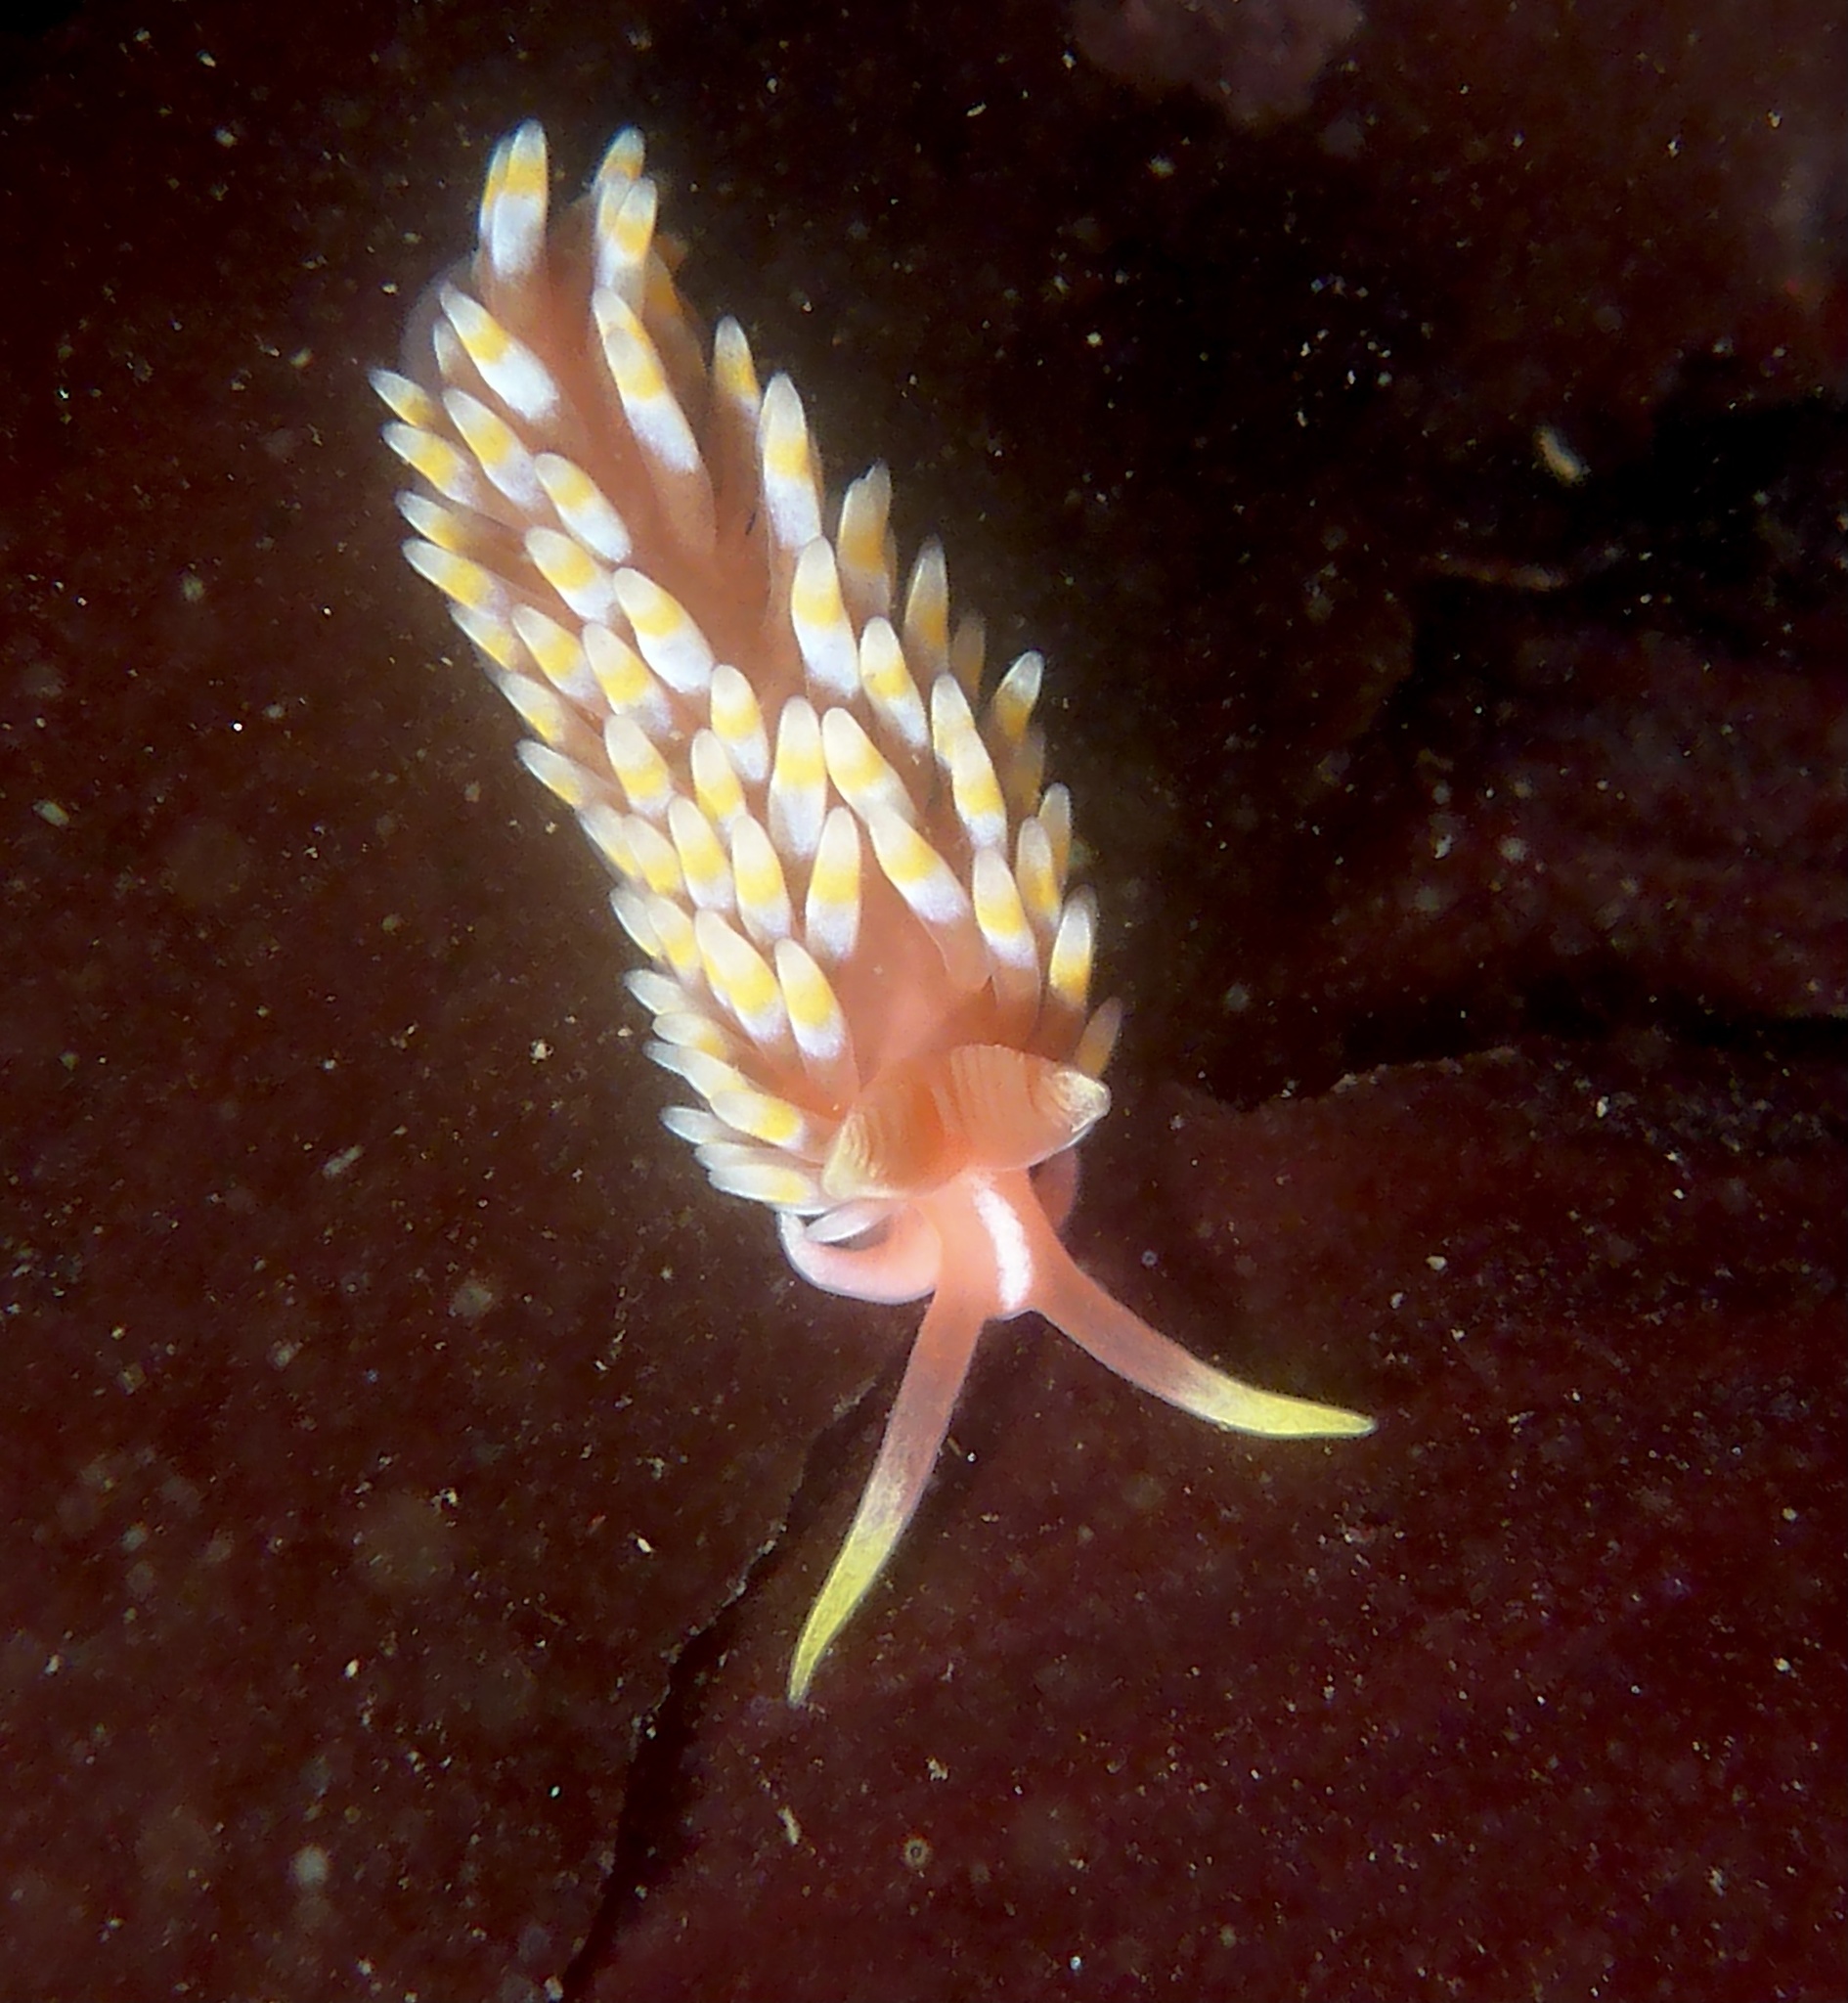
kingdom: Animalia
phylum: Mollusca
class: Gastropoda
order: Nudibranchia
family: Babakinidae
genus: Babakina
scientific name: Babakina festiva
